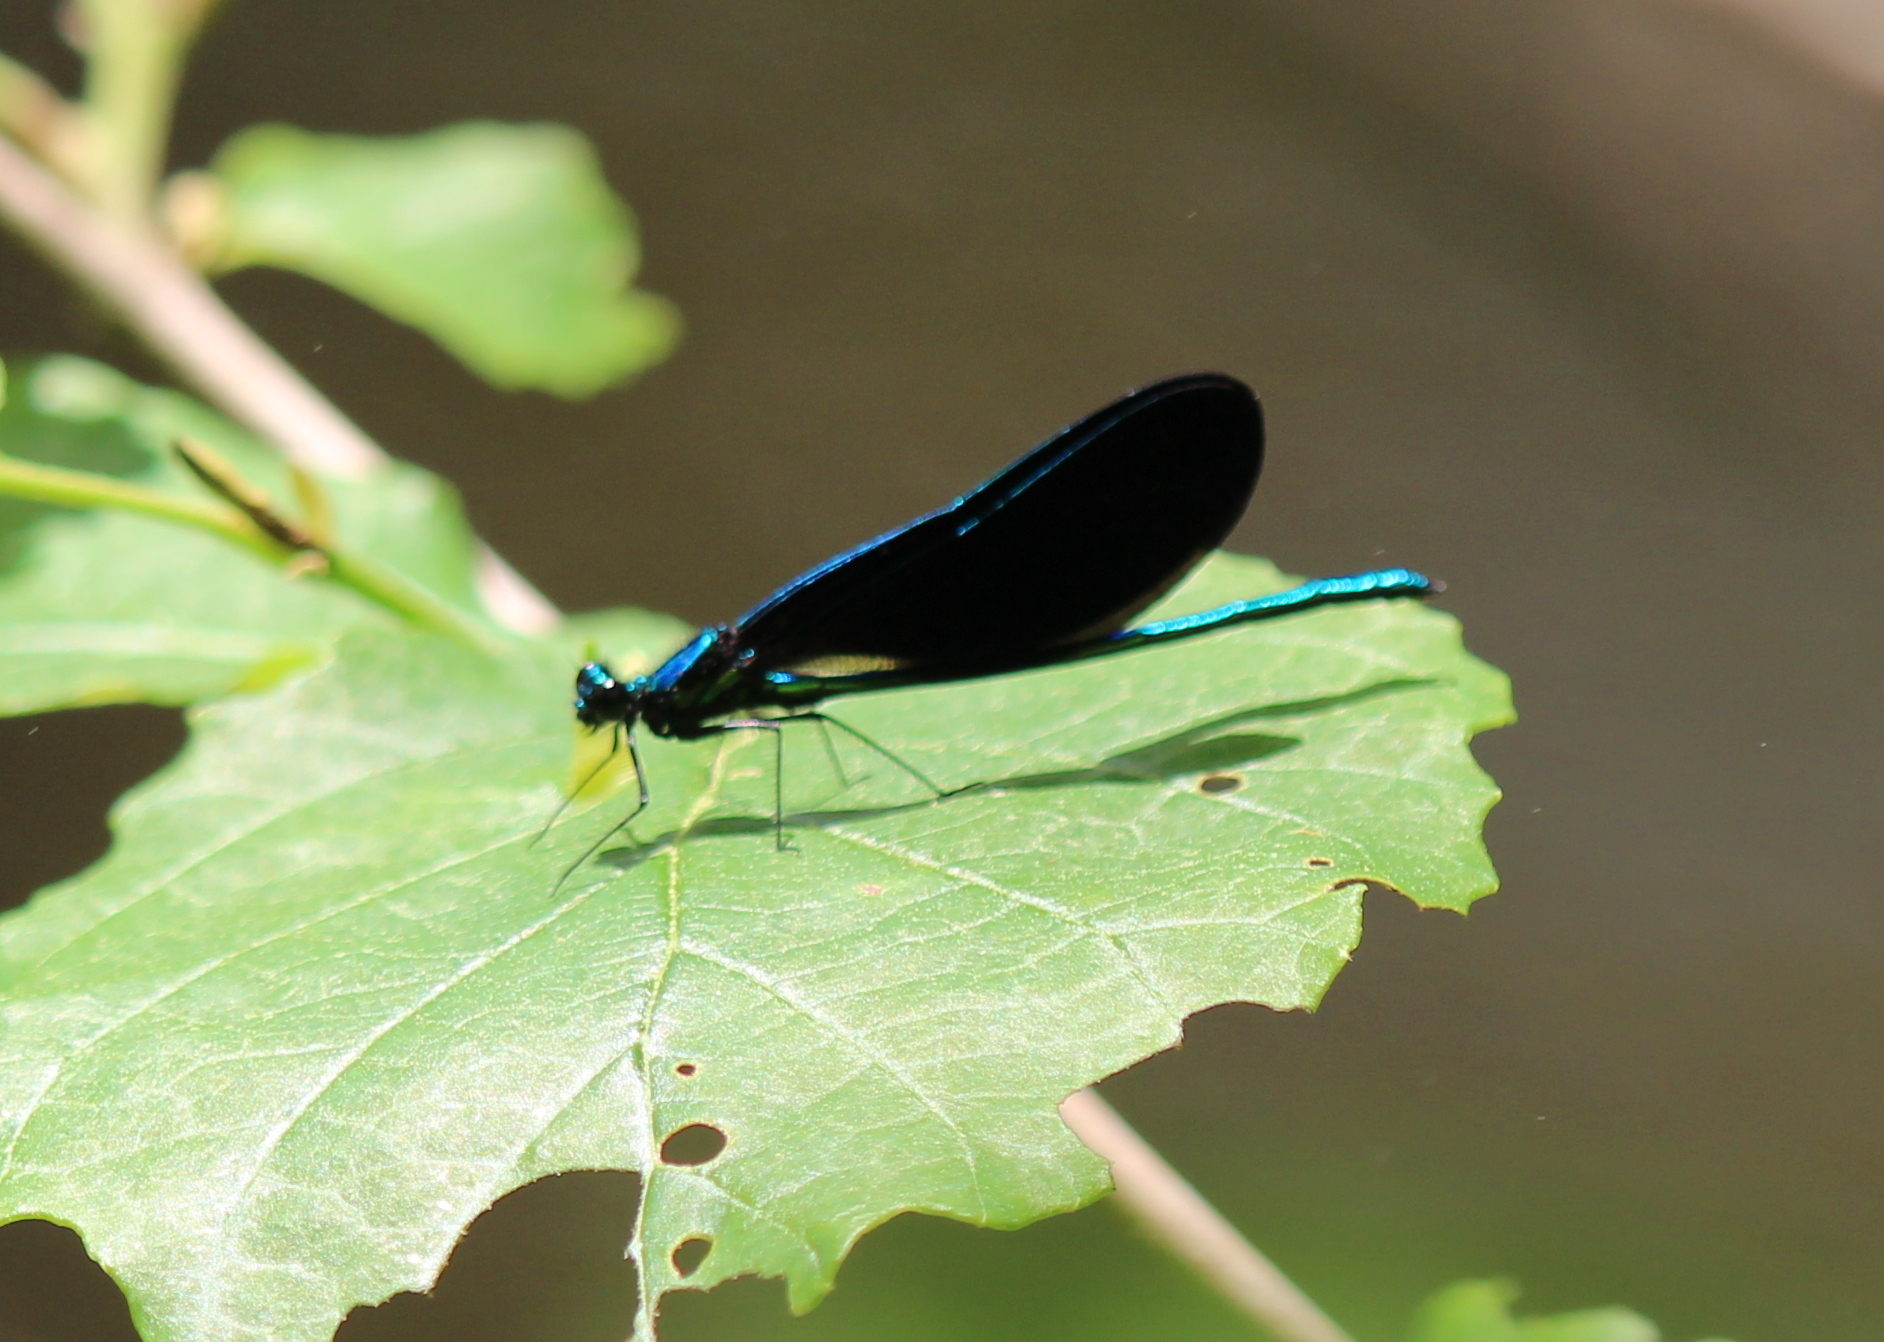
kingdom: Animalia
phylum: Arthropoda
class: Insecta
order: Odonata
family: Calopterygidae
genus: Calopteryx
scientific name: Calopteryx maculata
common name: Ebony jewelwing
